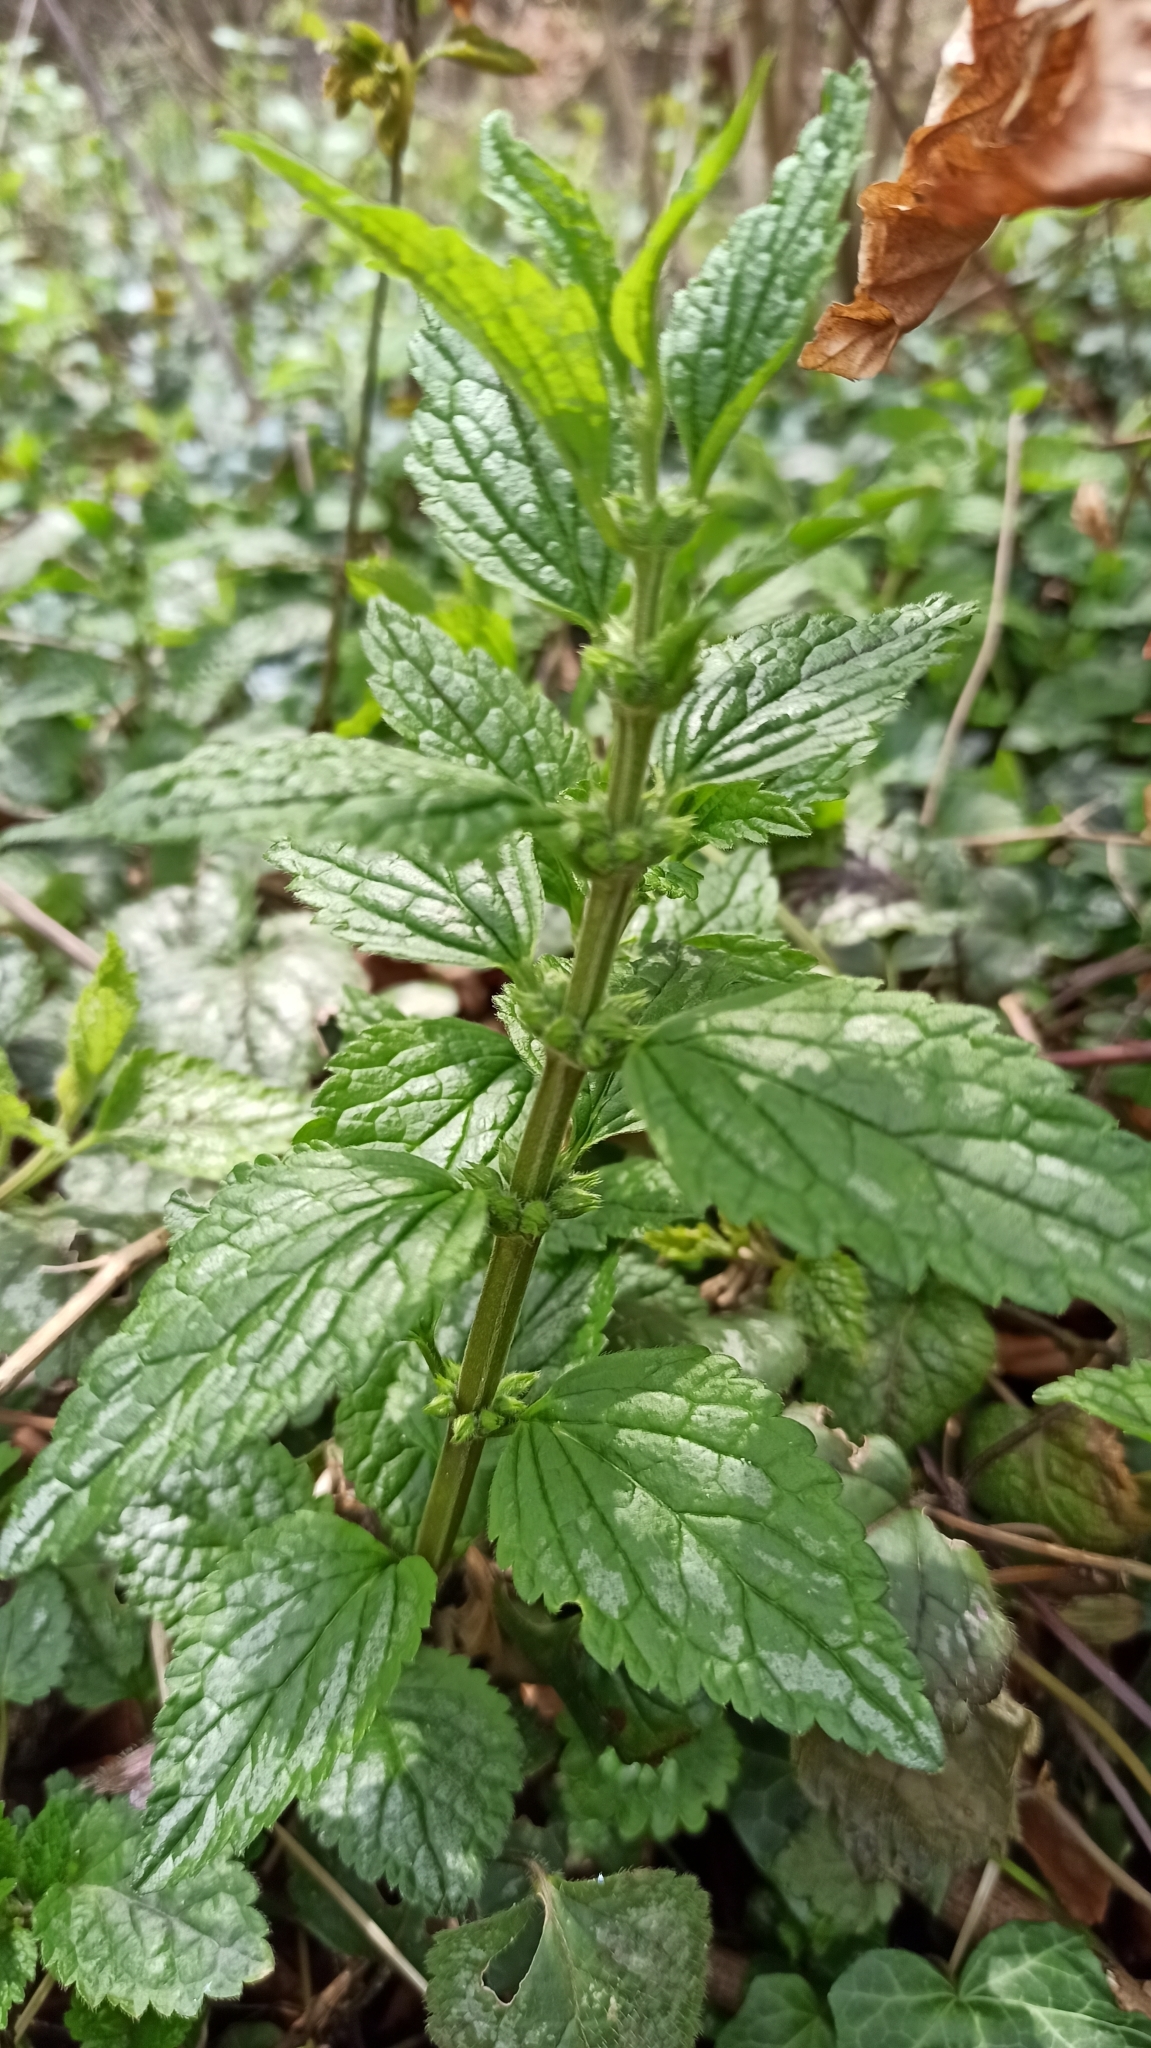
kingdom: Plantae
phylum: Tracheophyta
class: Magnoliopsida
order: Lamiales
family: Lamiaceae
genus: Lamium
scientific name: Lamium galeobdolon
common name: Yellow archangel
